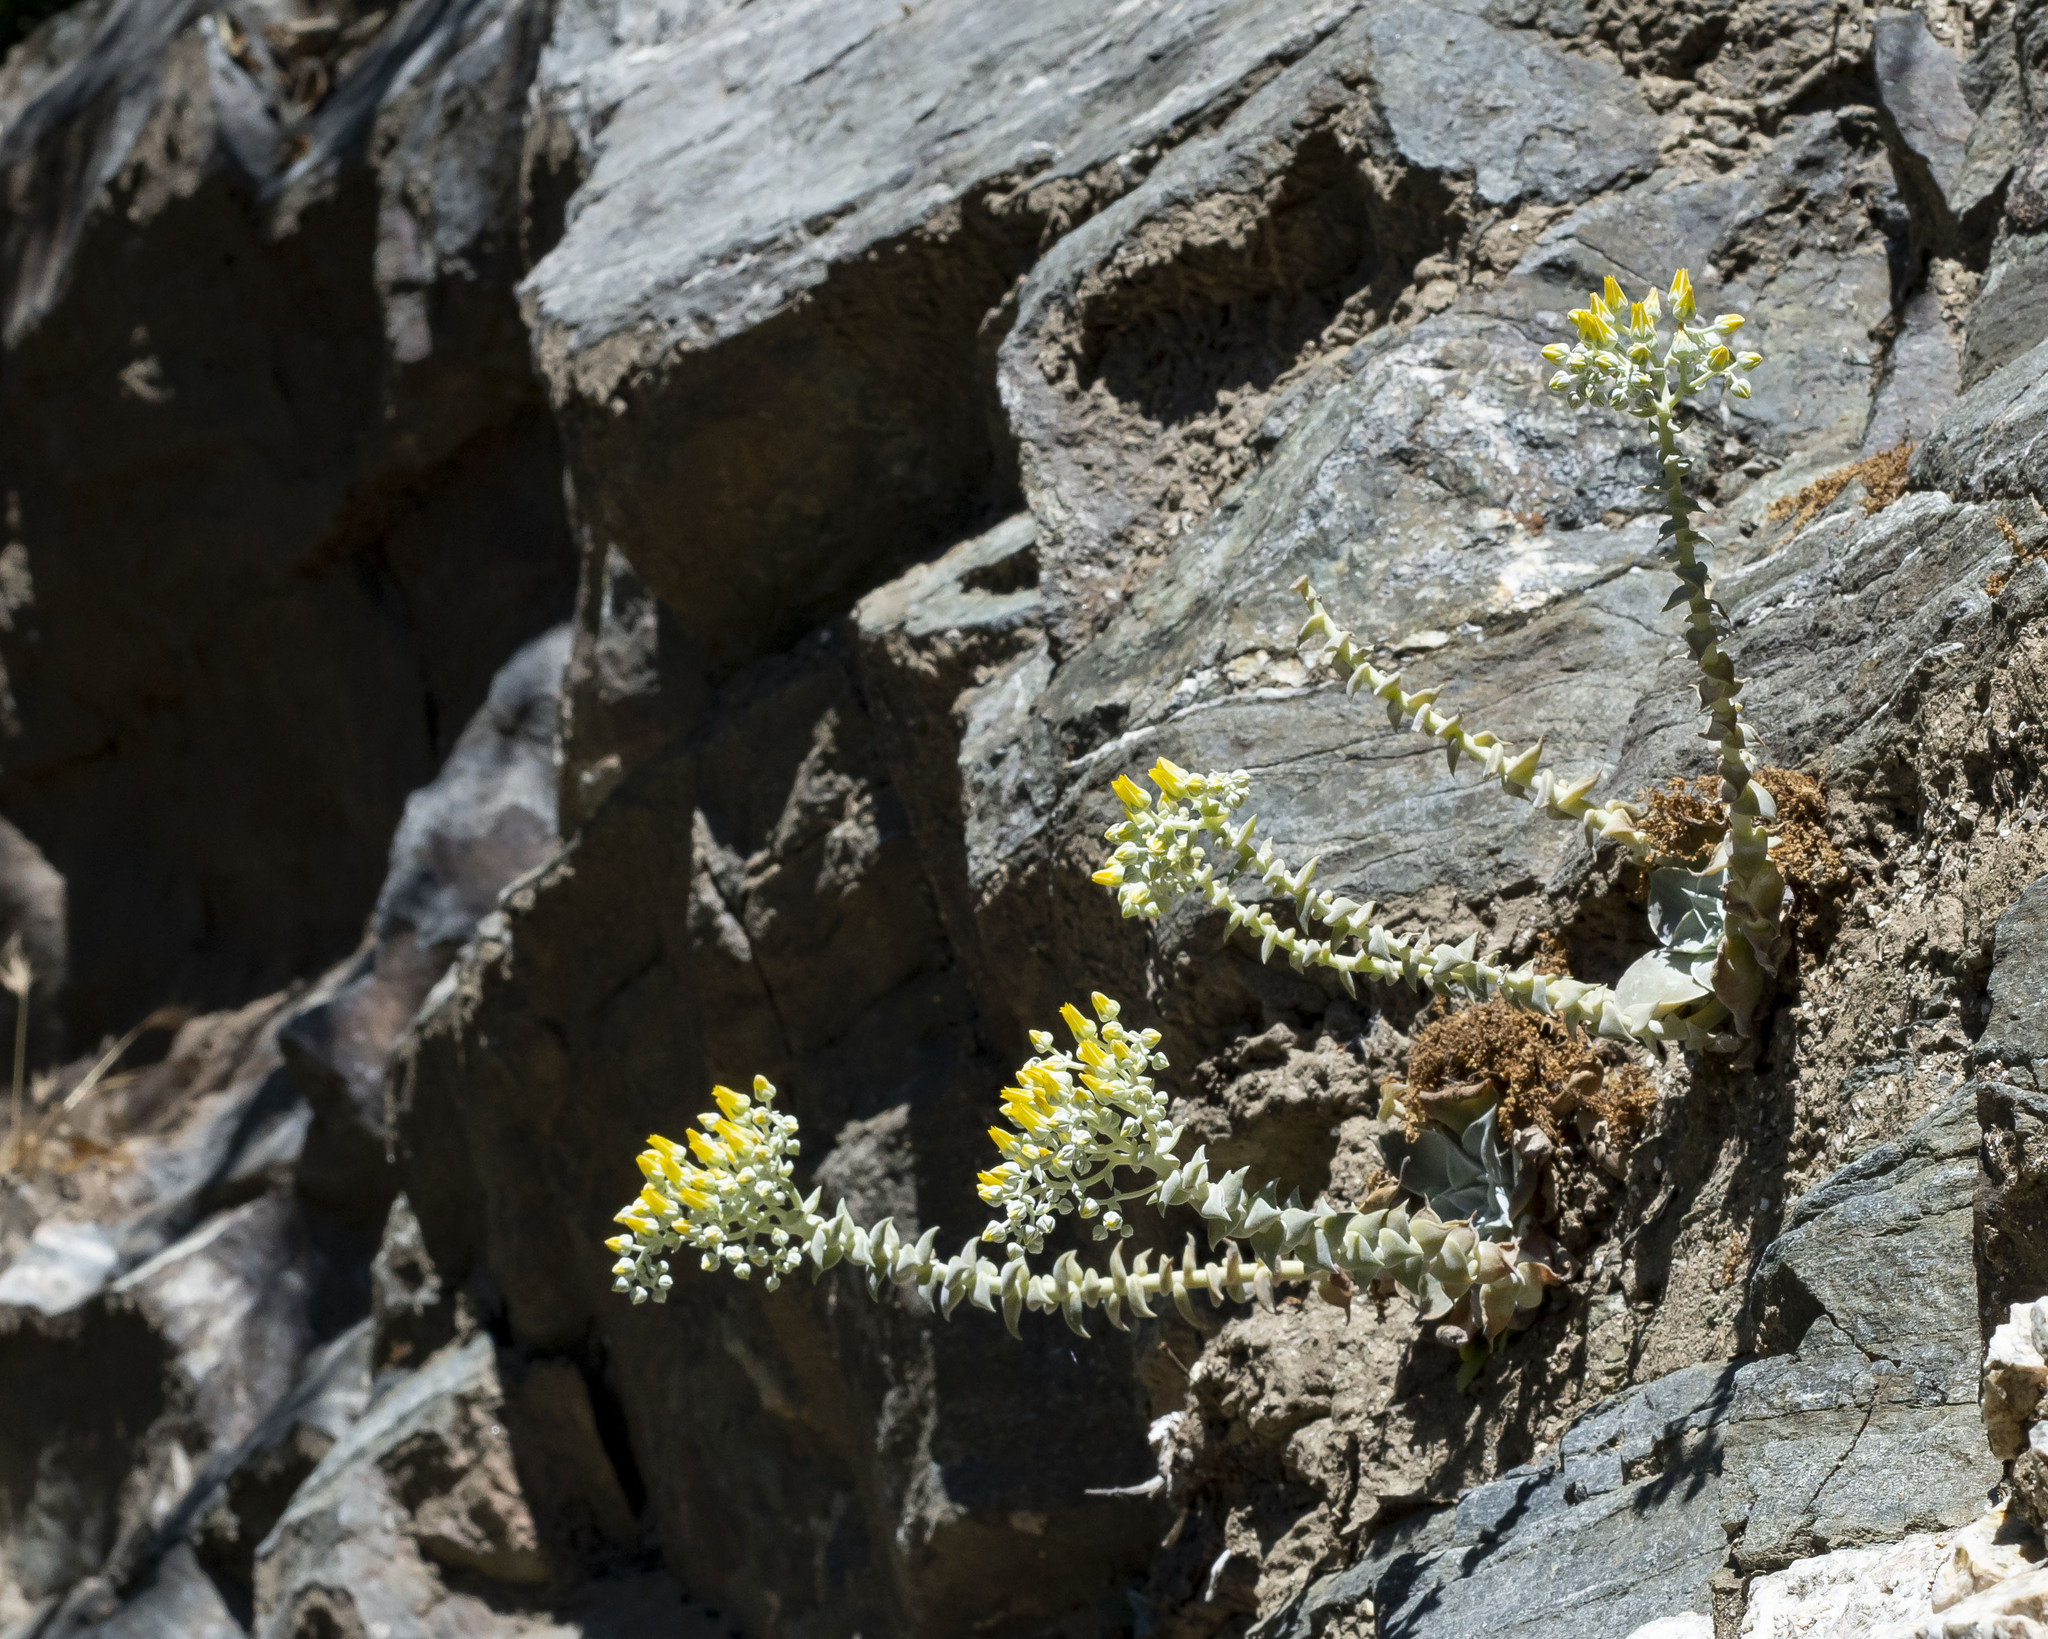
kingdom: Plantae
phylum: Tracheophyta
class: Magnoliopsida
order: Saxifragales
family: Crassulaceae
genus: Dudleya
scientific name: Dudleya cymosa
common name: Canyon dudleya
